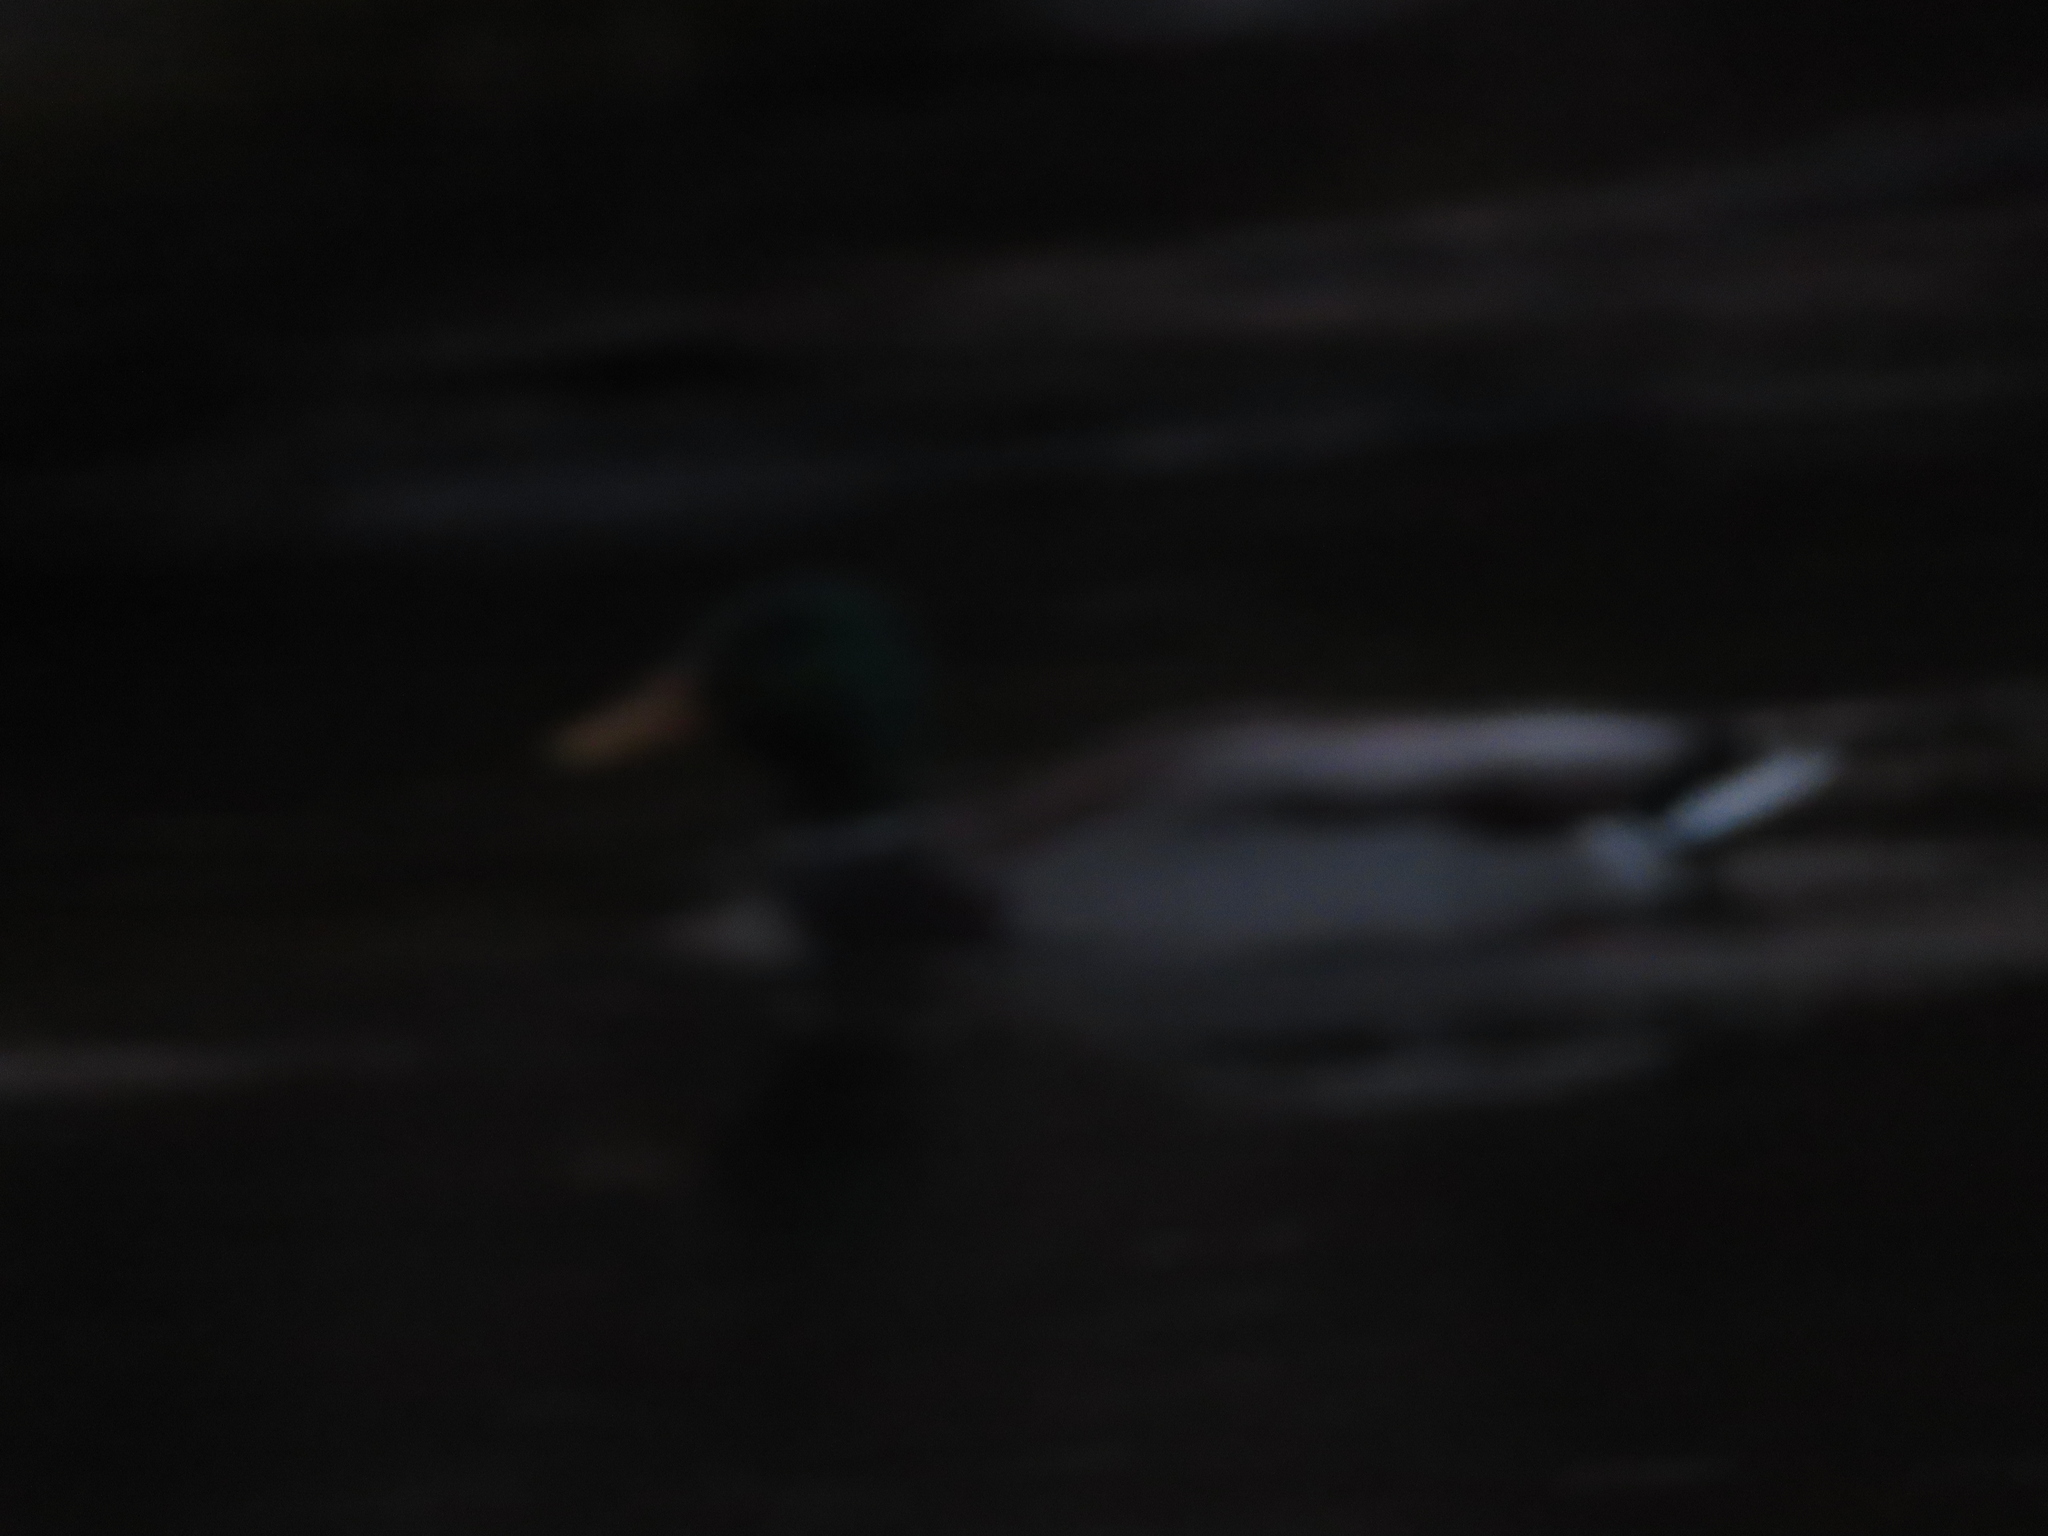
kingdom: Animalia
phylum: Chordata
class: Aves
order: Anseriformes
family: Anatidae
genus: Anas
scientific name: Anas platyrhynchos
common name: Mallard
